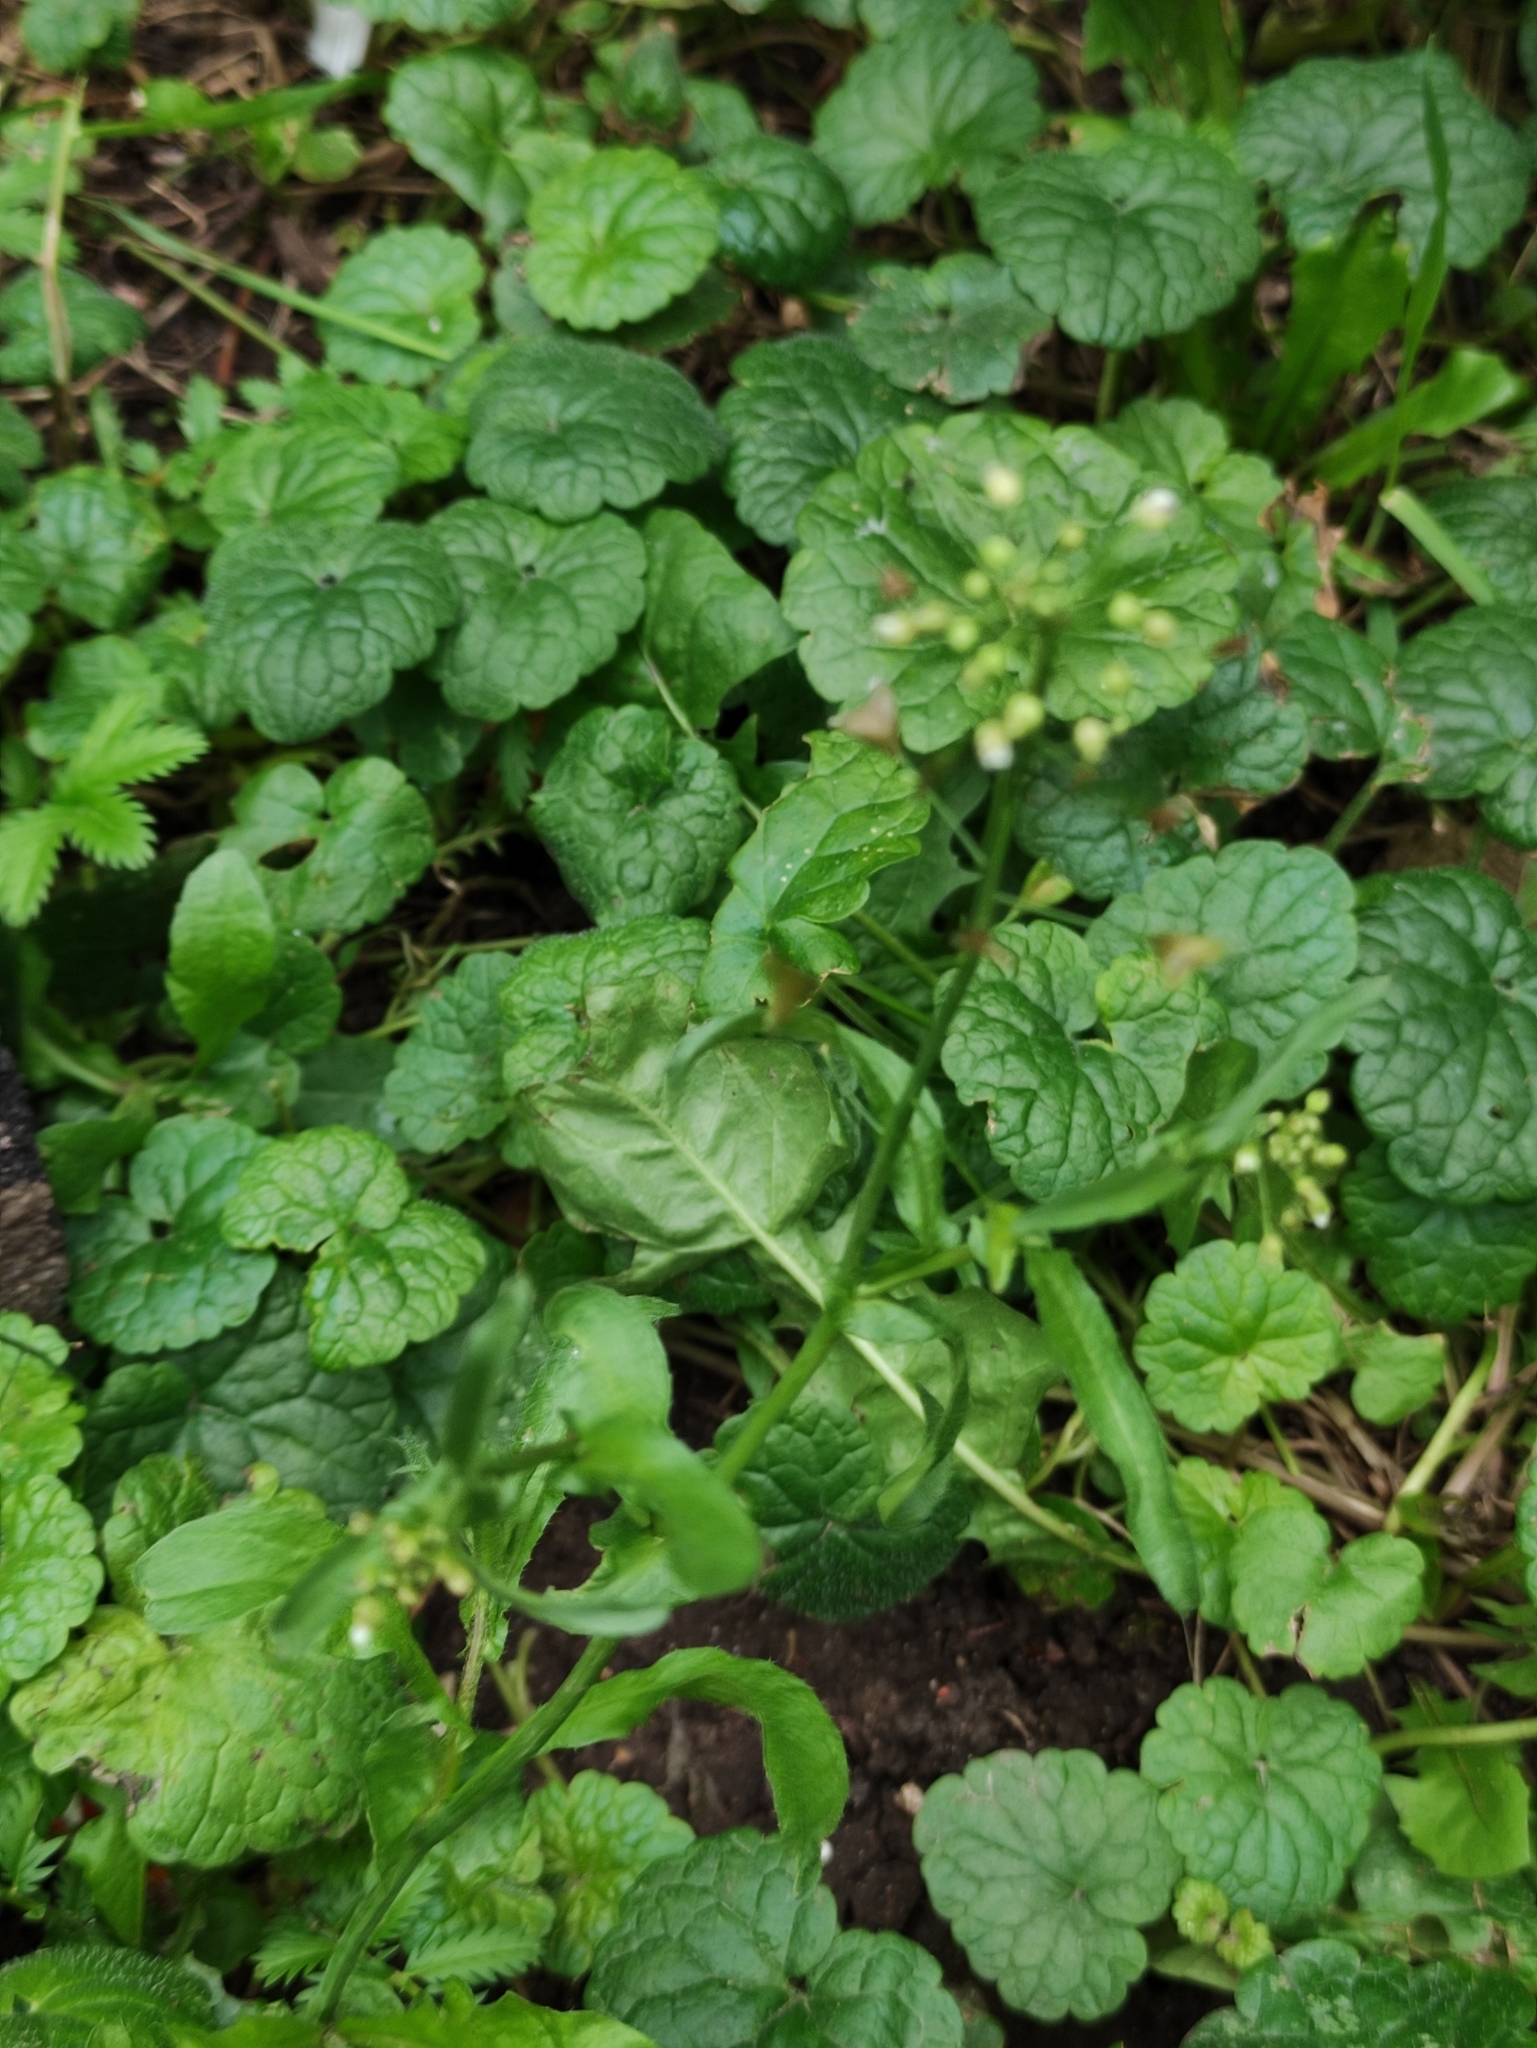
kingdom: Plantae
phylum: Tracheophyta
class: Magnoliopsida
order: Brassicales
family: Brassicaceae
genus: Capsella
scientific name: Capsella bursa-pastoris
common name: Shepherd's purse
